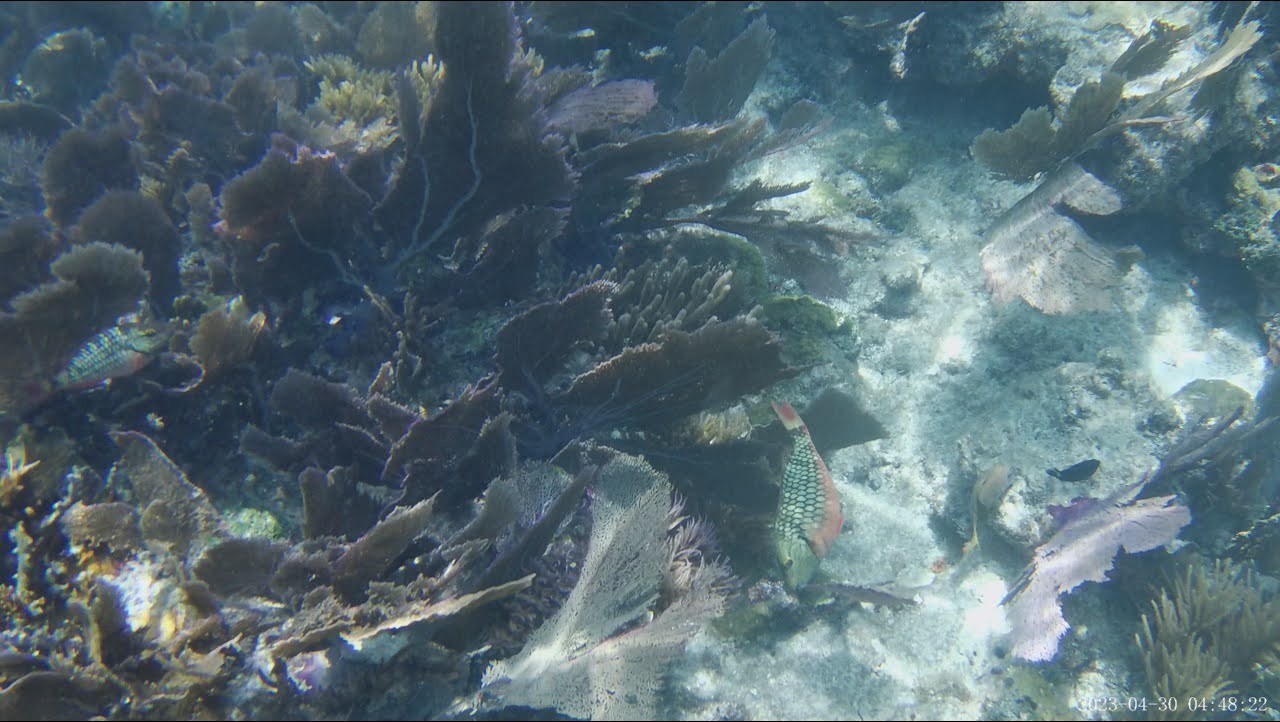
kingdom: Animalia
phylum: Chordata
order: Perciformes
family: Scaridae
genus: Sparisoma
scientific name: Sparisoma viride
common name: Stoplight parrotfish
